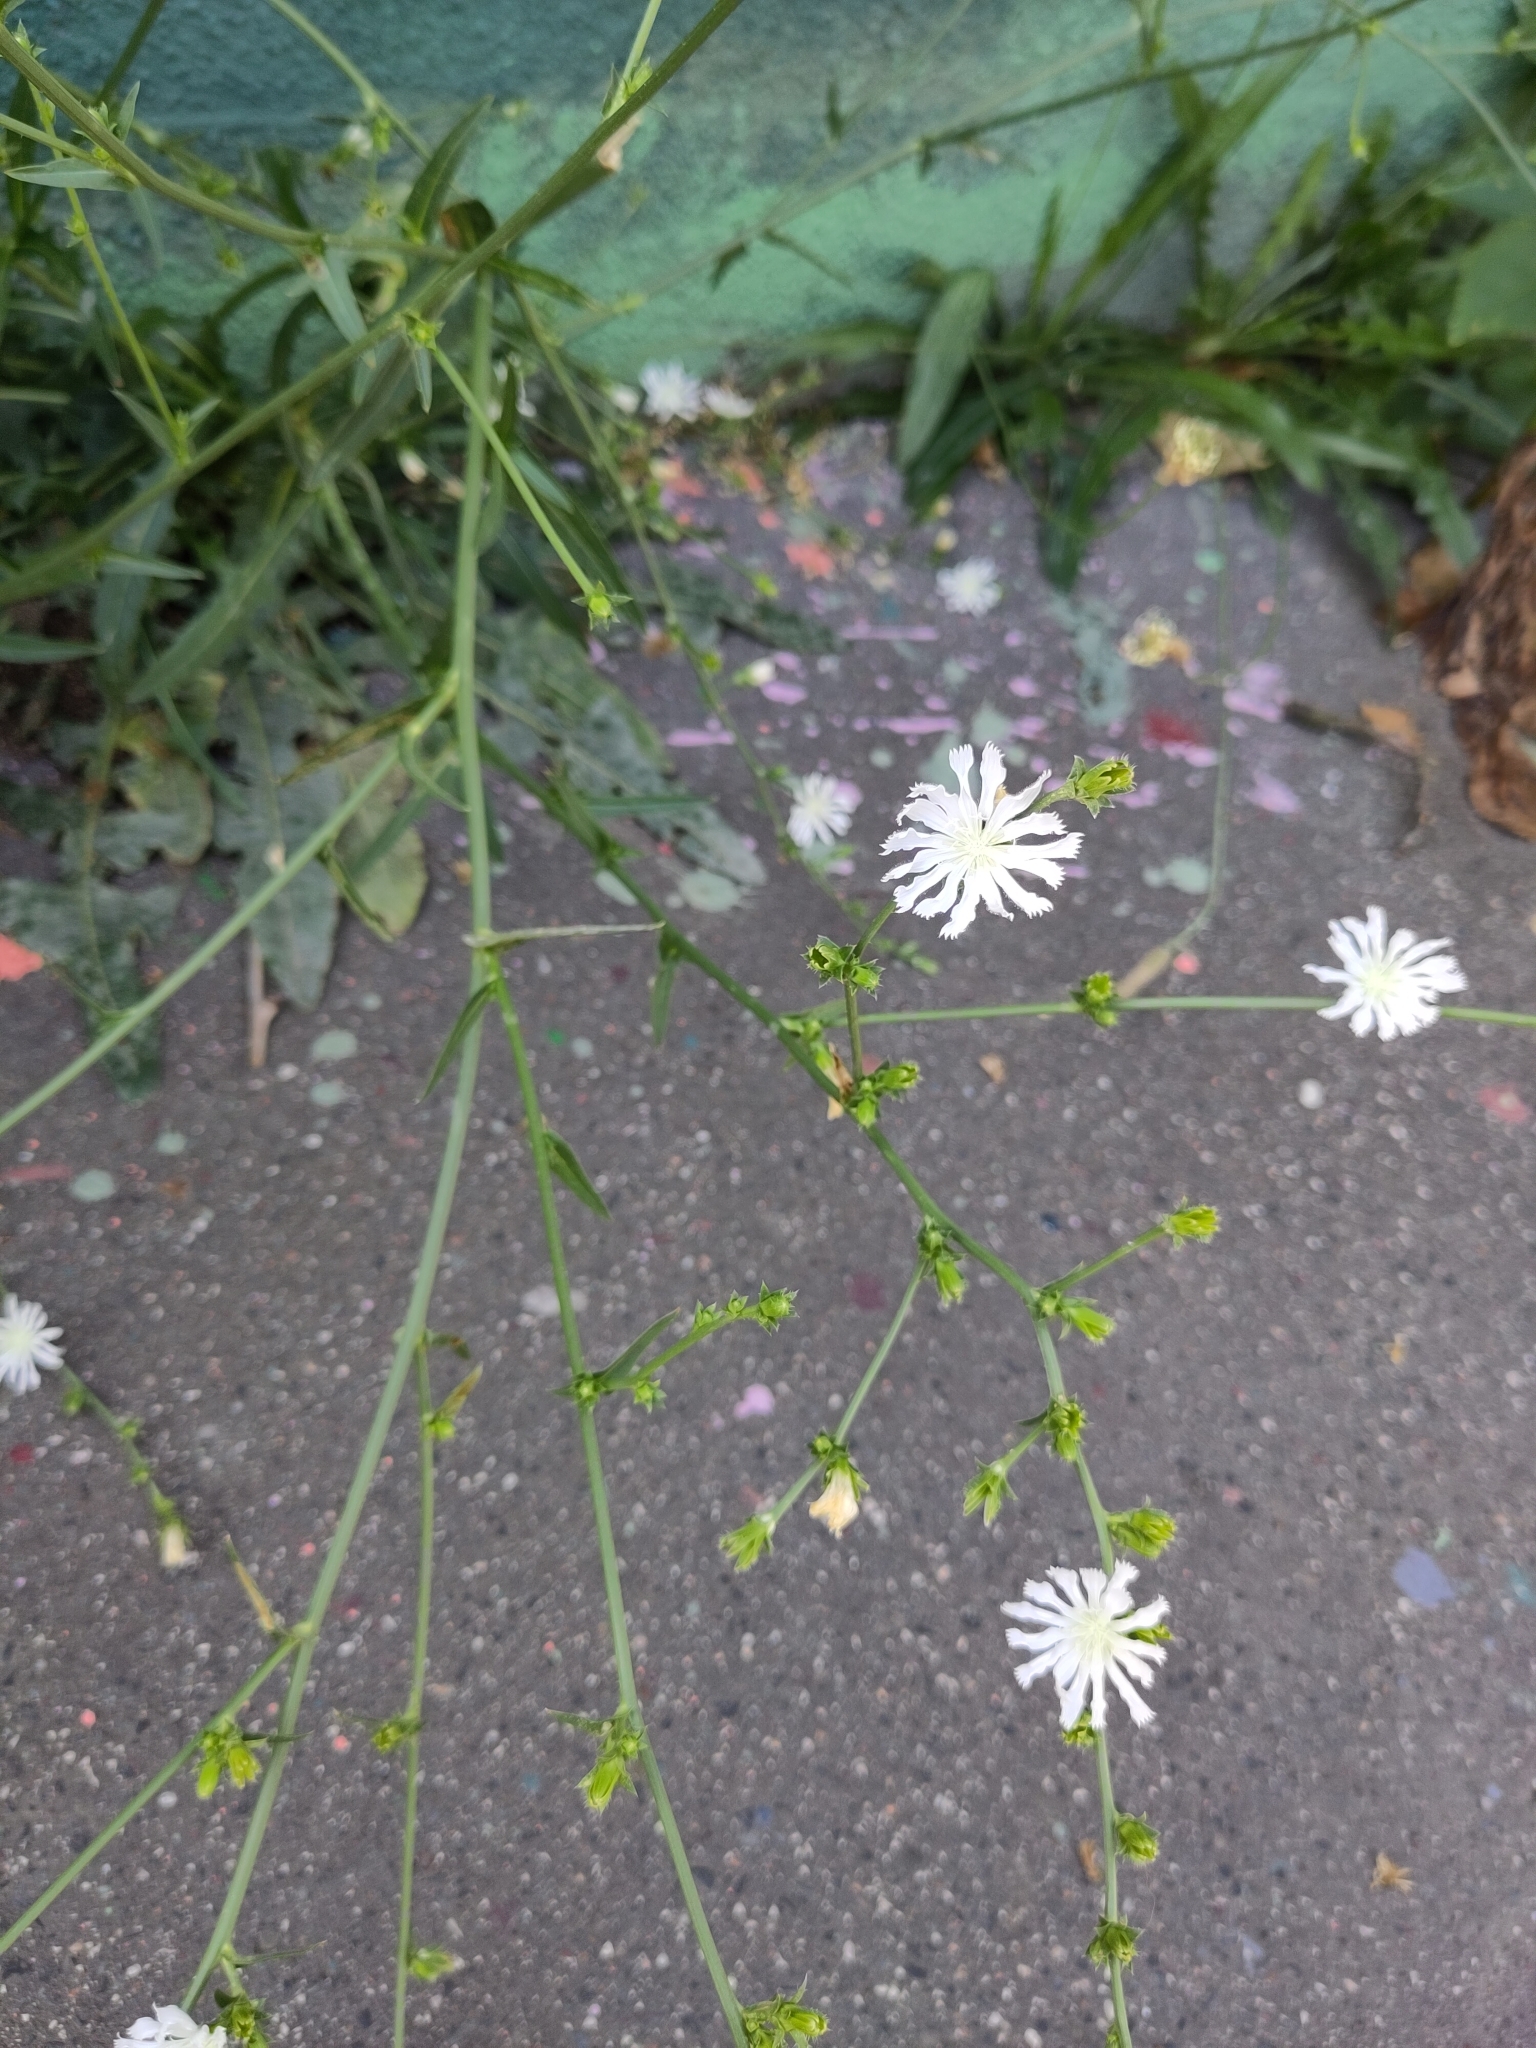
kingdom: Plantae
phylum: Tracheophyta
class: Magnoliopsida
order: Asterales
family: Asteraceae
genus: Cichorium
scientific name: Cichorium intybus
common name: Chicory
